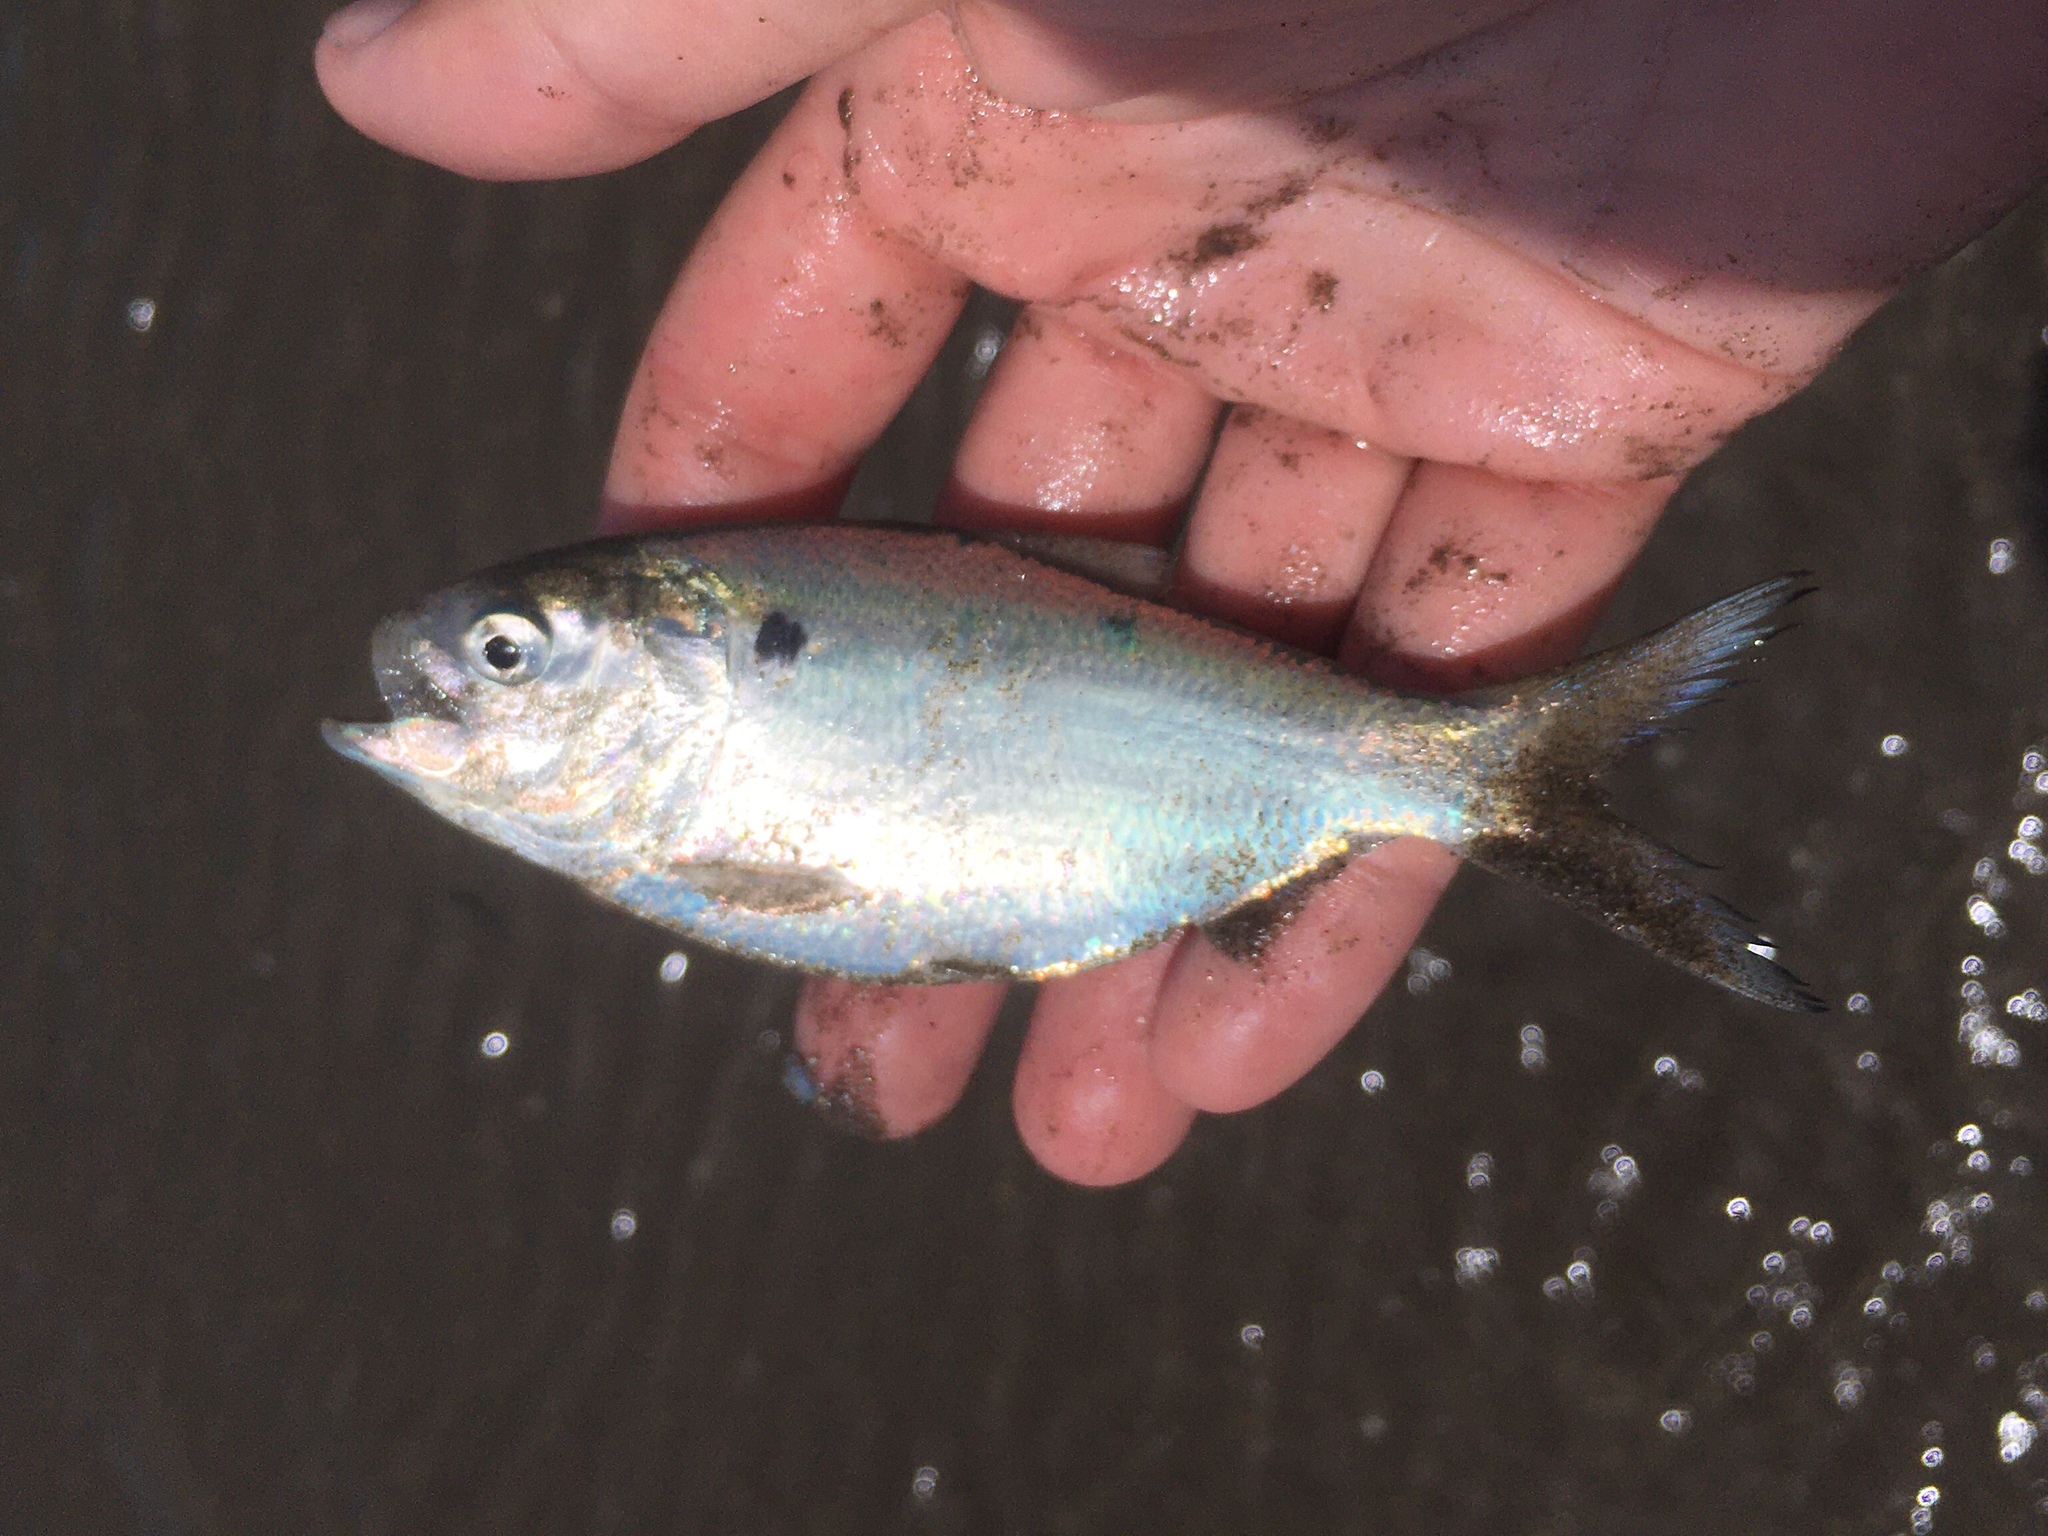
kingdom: Animalia
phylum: Chordata
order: Clupeiformes
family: Clupeidae
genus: Brevoortia
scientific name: Brevoortia aurea
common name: Brazilian menhaden
